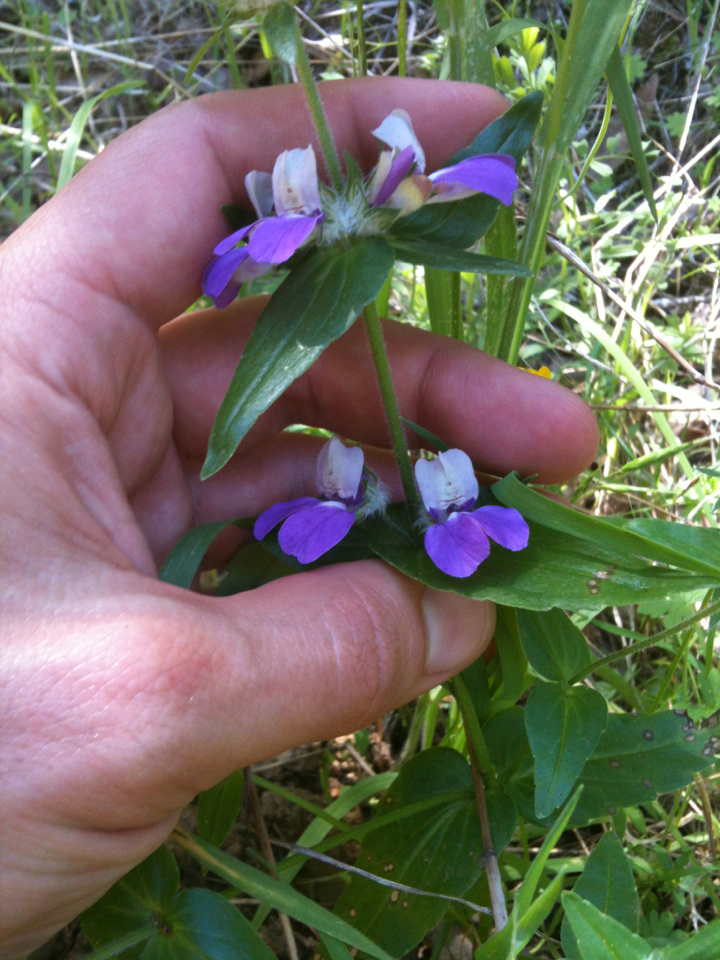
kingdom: Plantae
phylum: Tracheophyta
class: Magnoliopsida
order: Lamiales
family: Plantaginaceae
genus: Collinsia
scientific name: Collinsia heterophylla
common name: Chinese-houses
